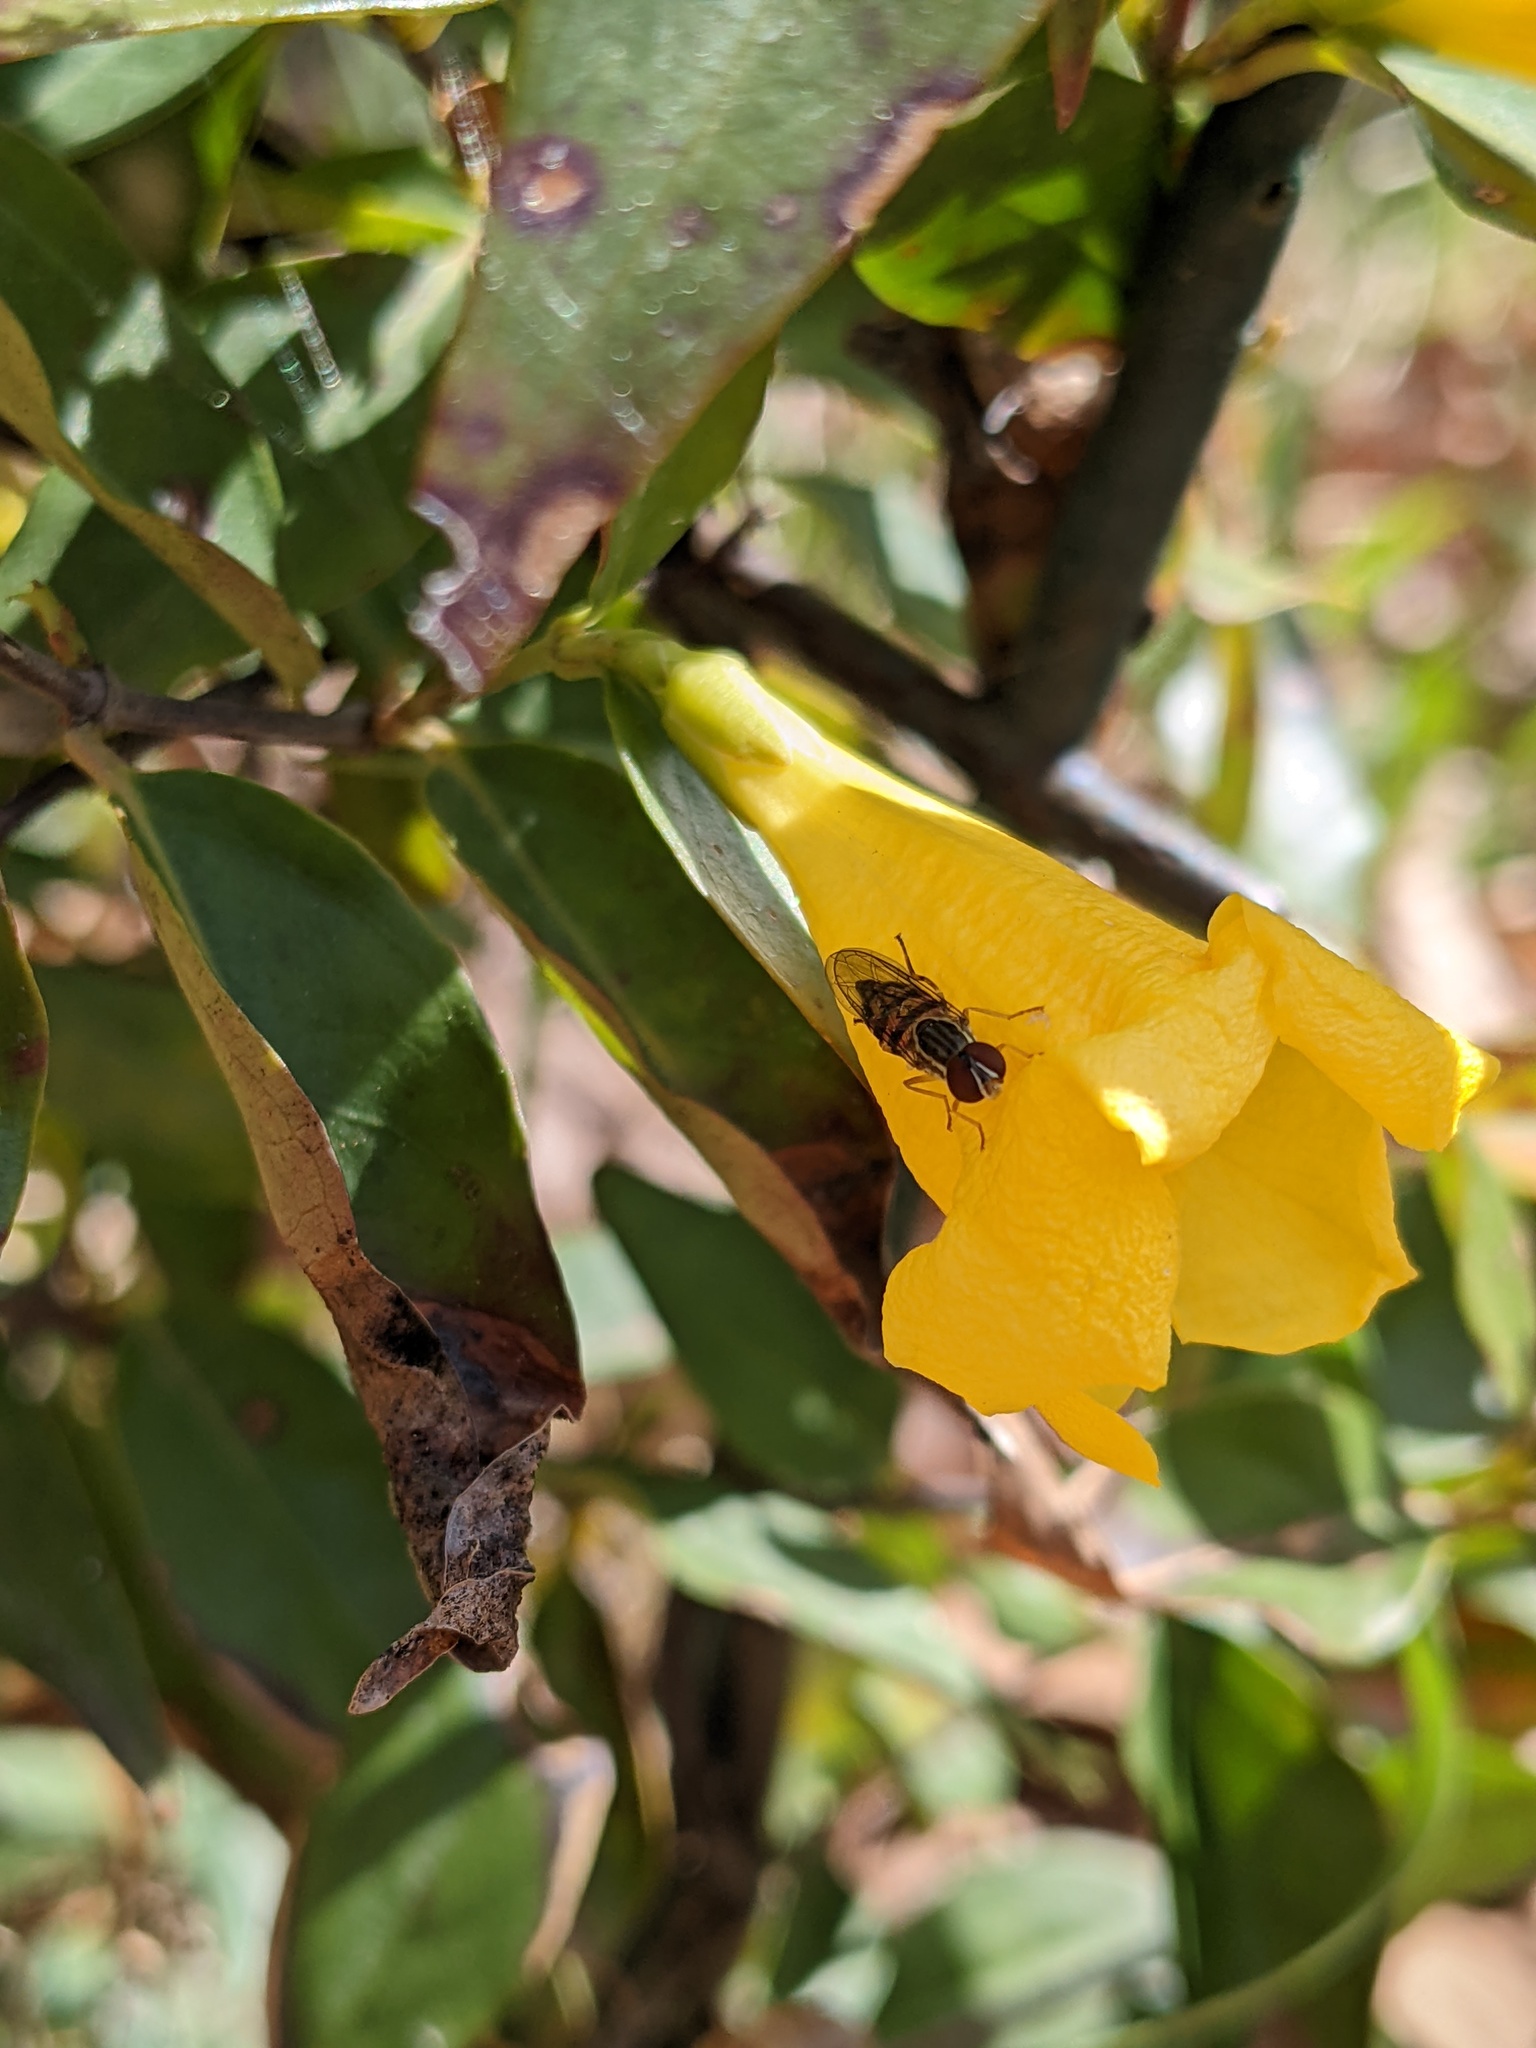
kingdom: Animalia
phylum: Arthropoda
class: Insecta
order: Diptera
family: Syrphidae
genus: Toxomerus
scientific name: Toxomerus geminatus
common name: Eastern calligrapher
